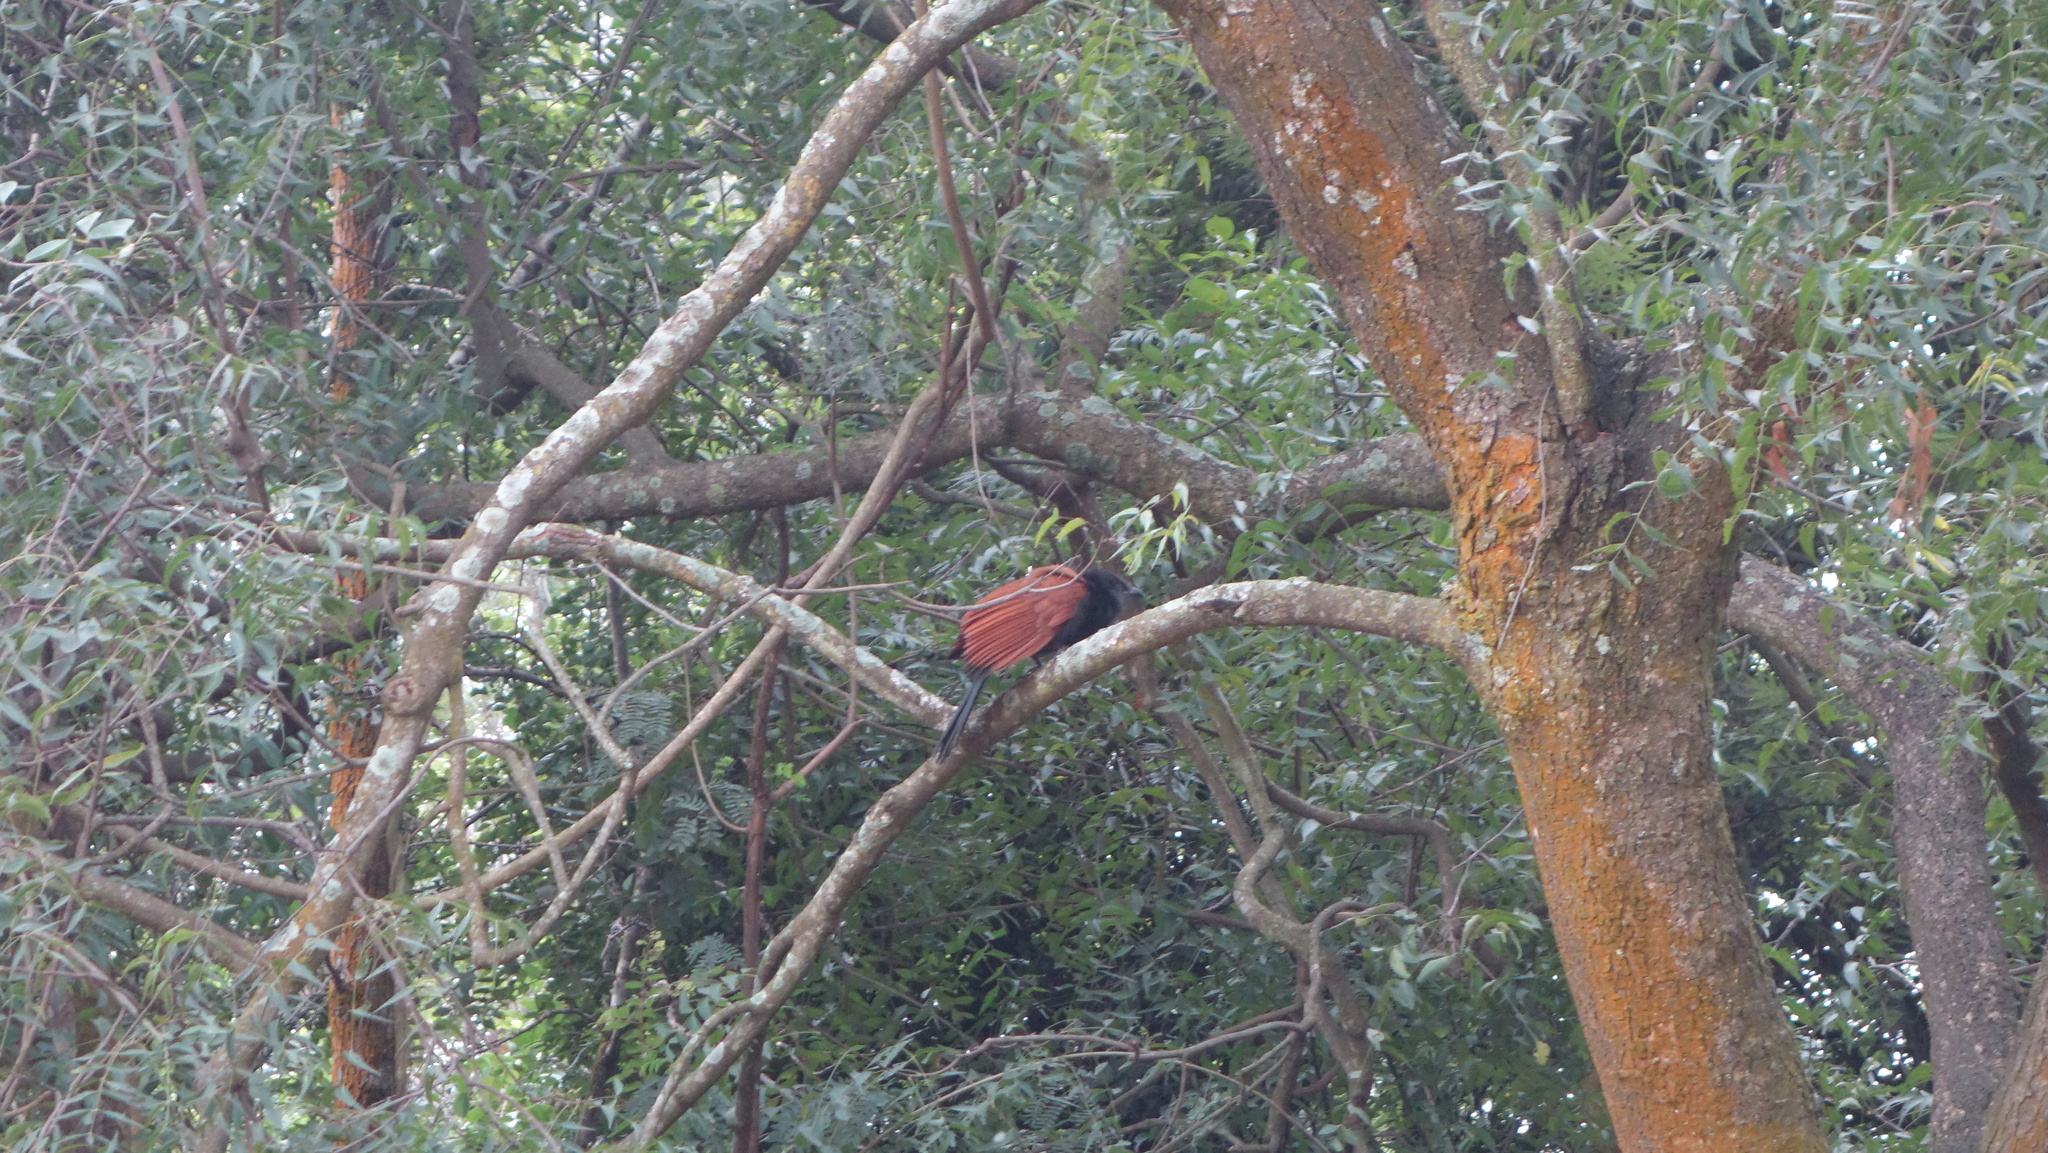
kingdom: Animalia
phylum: Chordata
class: Aves
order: Cuculiformes
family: Cuculidae
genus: Centropus
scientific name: Centropus sinensis
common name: Greater coucal
